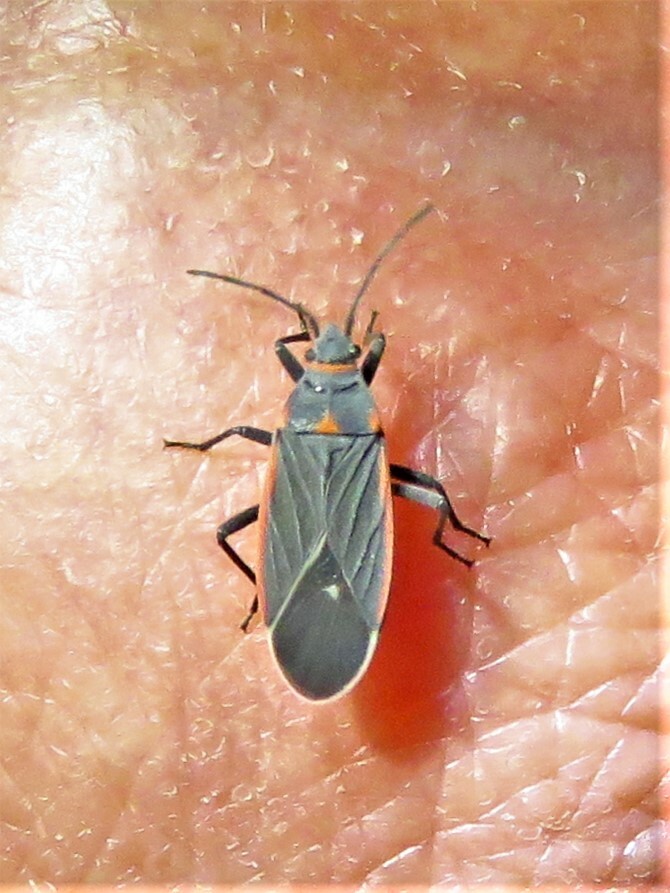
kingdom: Animalia
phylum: Arthropoda
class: Insecta
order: Hemiptera
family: Lygaeidae
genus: Melacoryphus
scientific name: Melacoryphus lateralis
